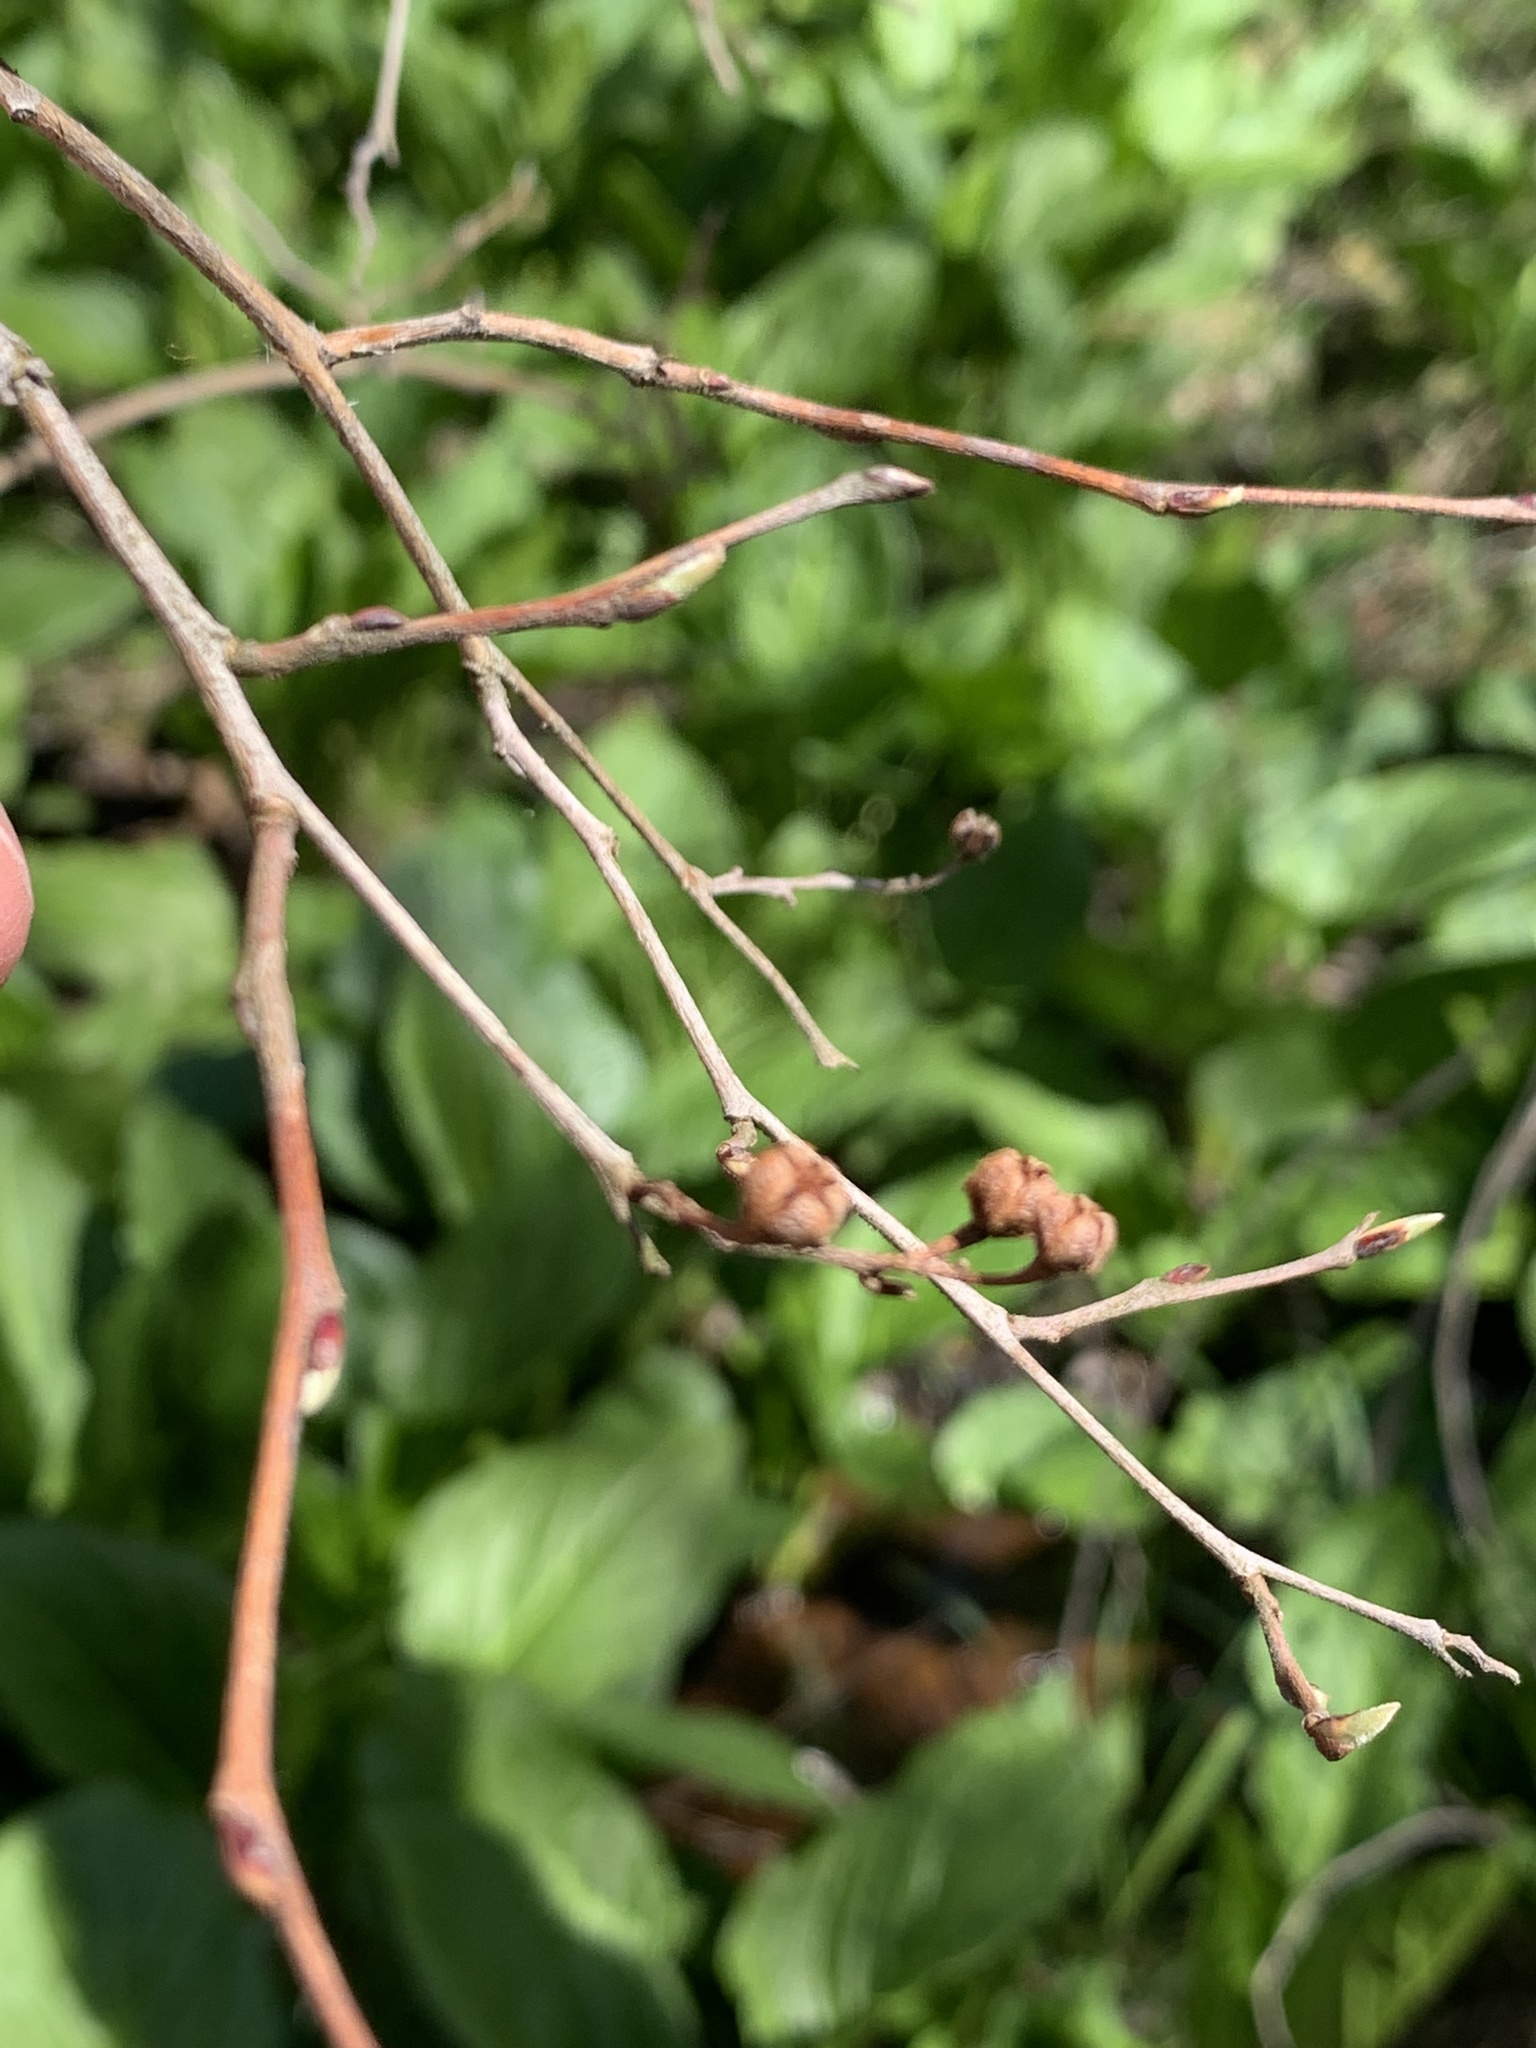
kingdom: Plantae
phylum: Tracheophyta
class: Magnoliopsida
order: Ericales
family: Ericaceae
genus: Lyonia
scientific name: Lyonia ligustrina
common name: Maleberry
